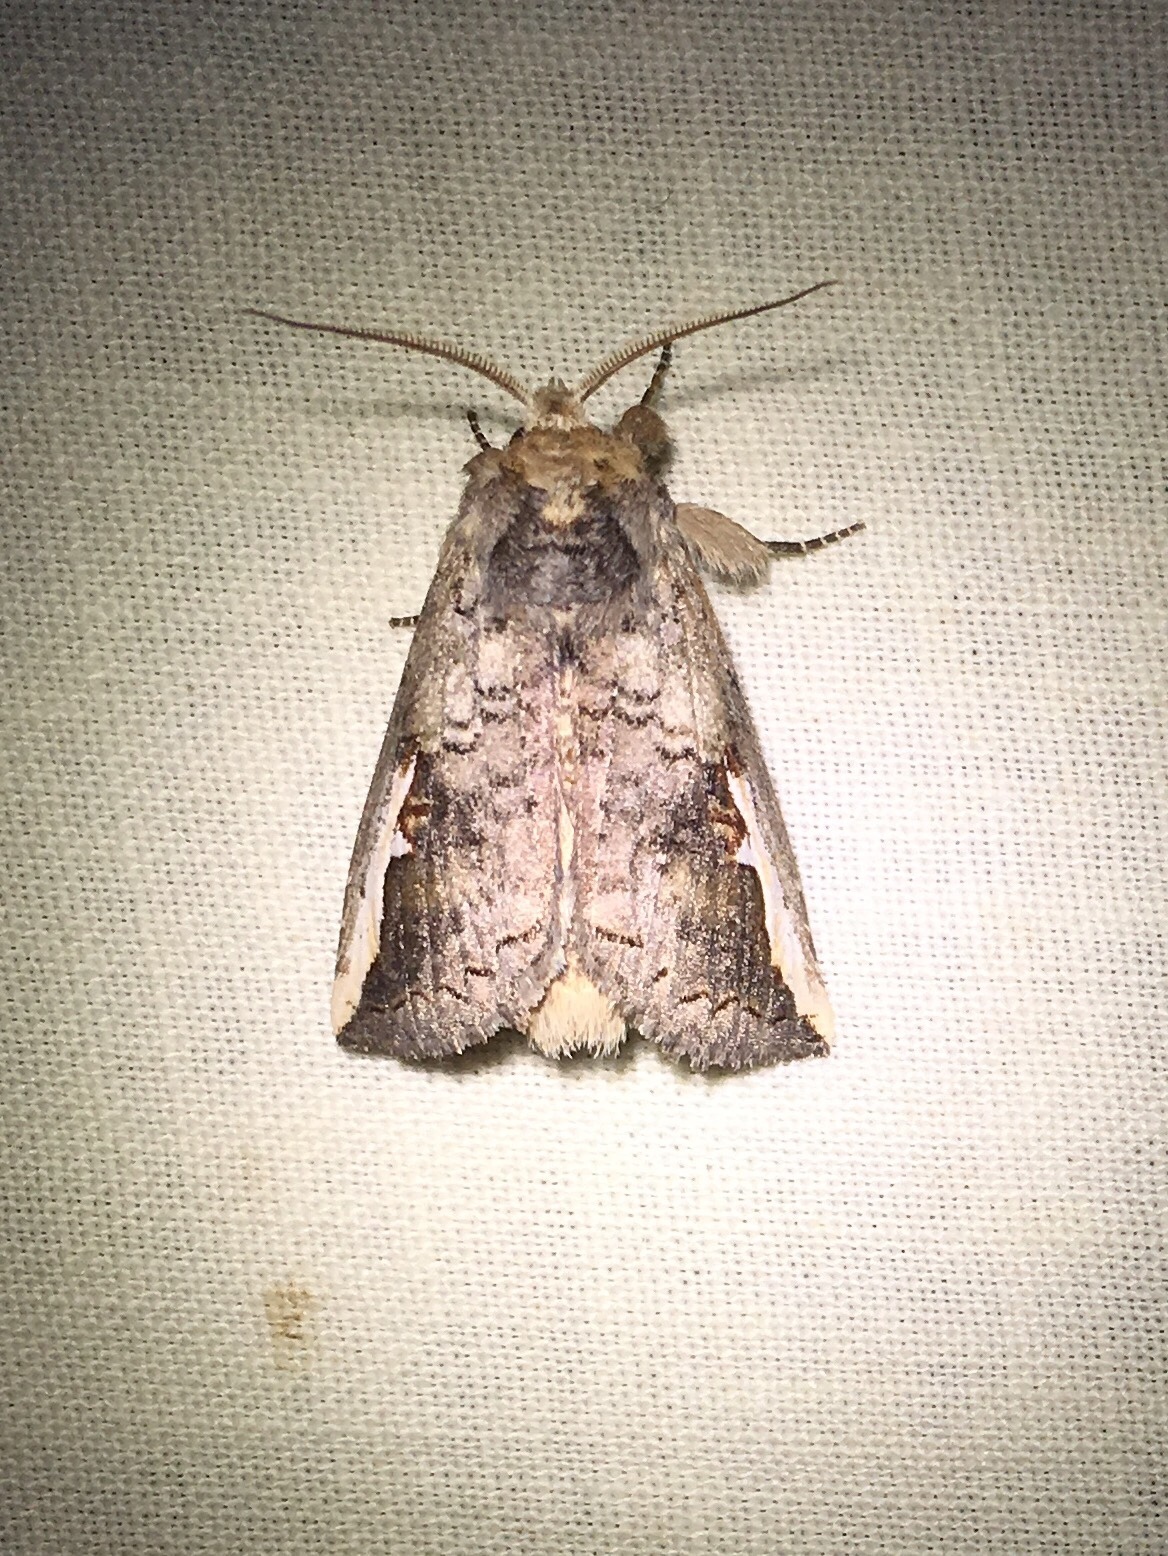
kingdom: Animalia
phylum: Arthropoda
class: Insecta
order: Lepidoptera
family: Notodontidae
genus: Symmerista
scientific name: Symmerista
